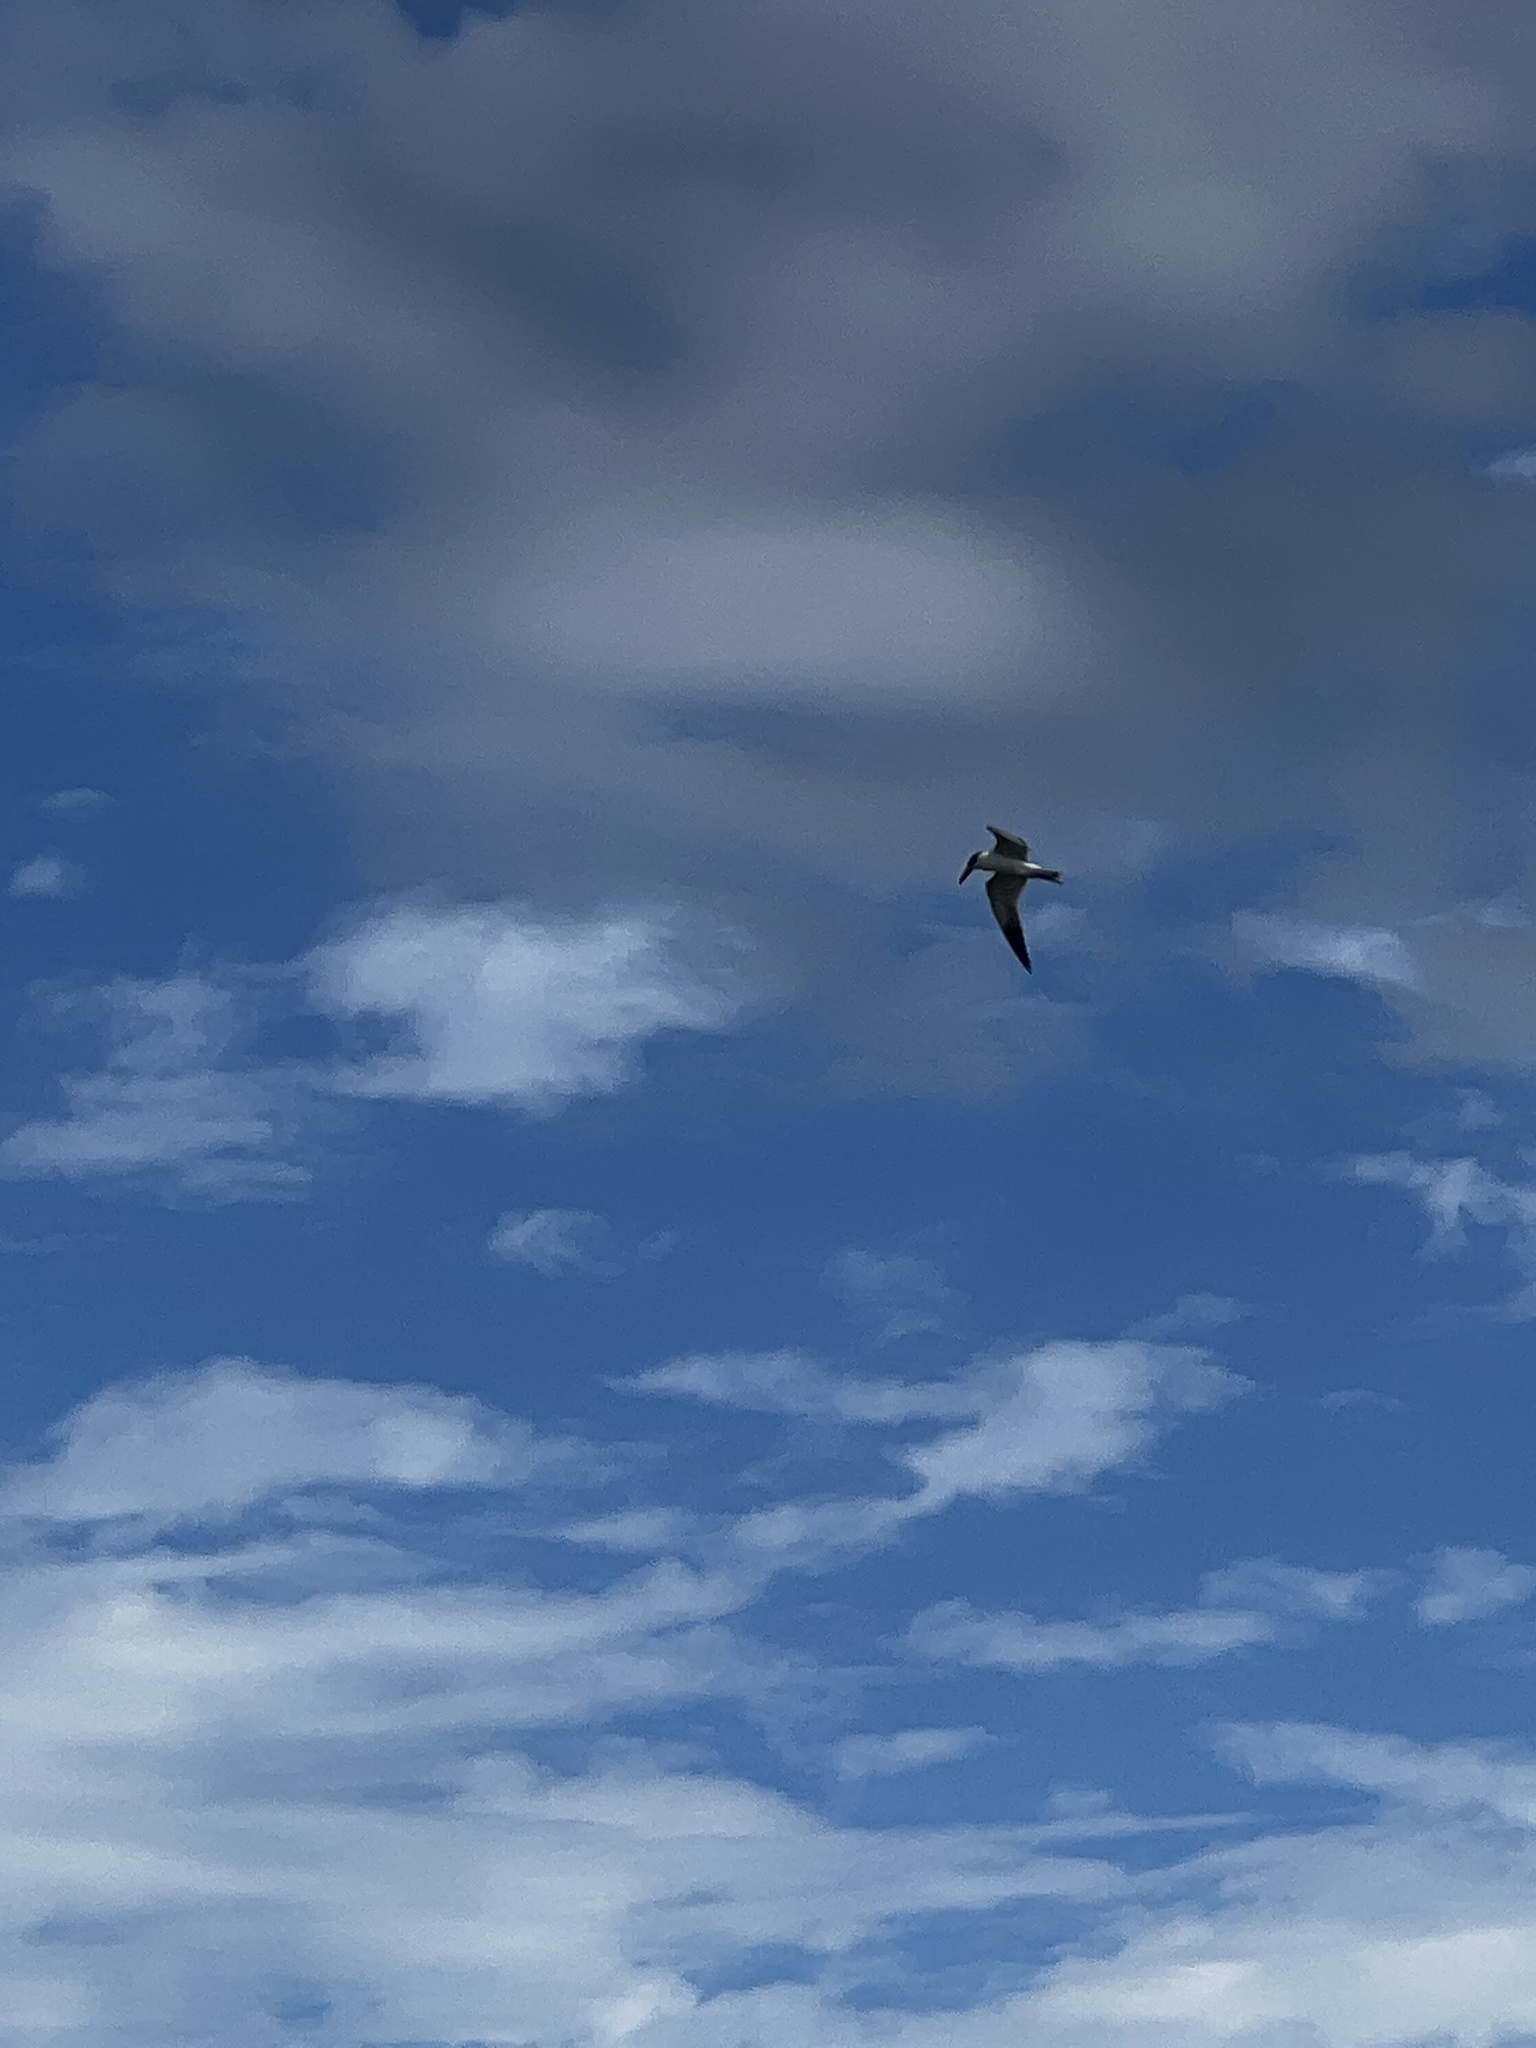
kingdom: Animalia
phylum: Chordata
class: Aves
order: Charadriiformes
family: Laridae
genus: Hydroprogne
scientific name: Hydroprogne caspia
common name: Caspian tern
